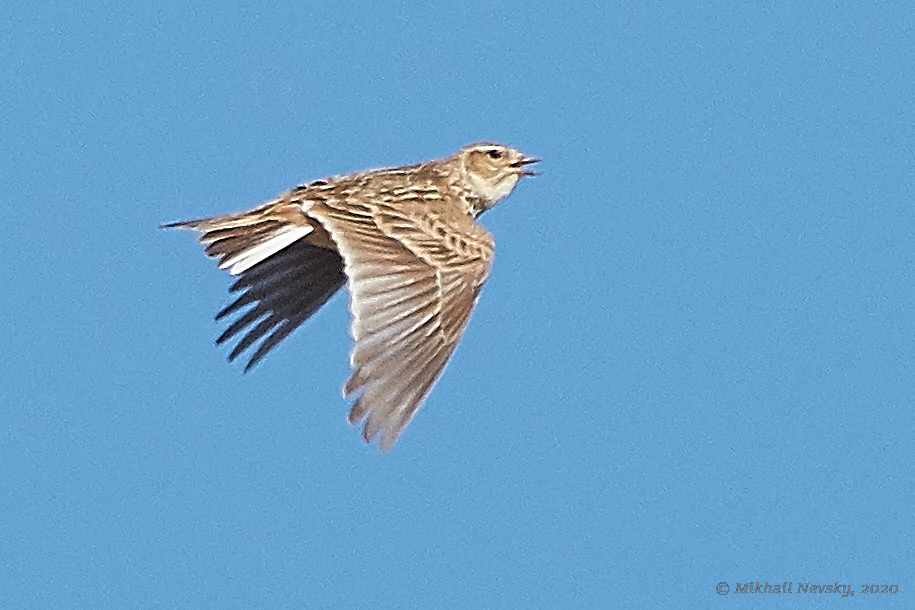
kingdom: Animalia
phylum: Chordata
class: Aves
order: Passeriformes
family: Alaudidae
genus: Alauda
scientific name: Alauda arvensis
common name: Eurasian skylark
